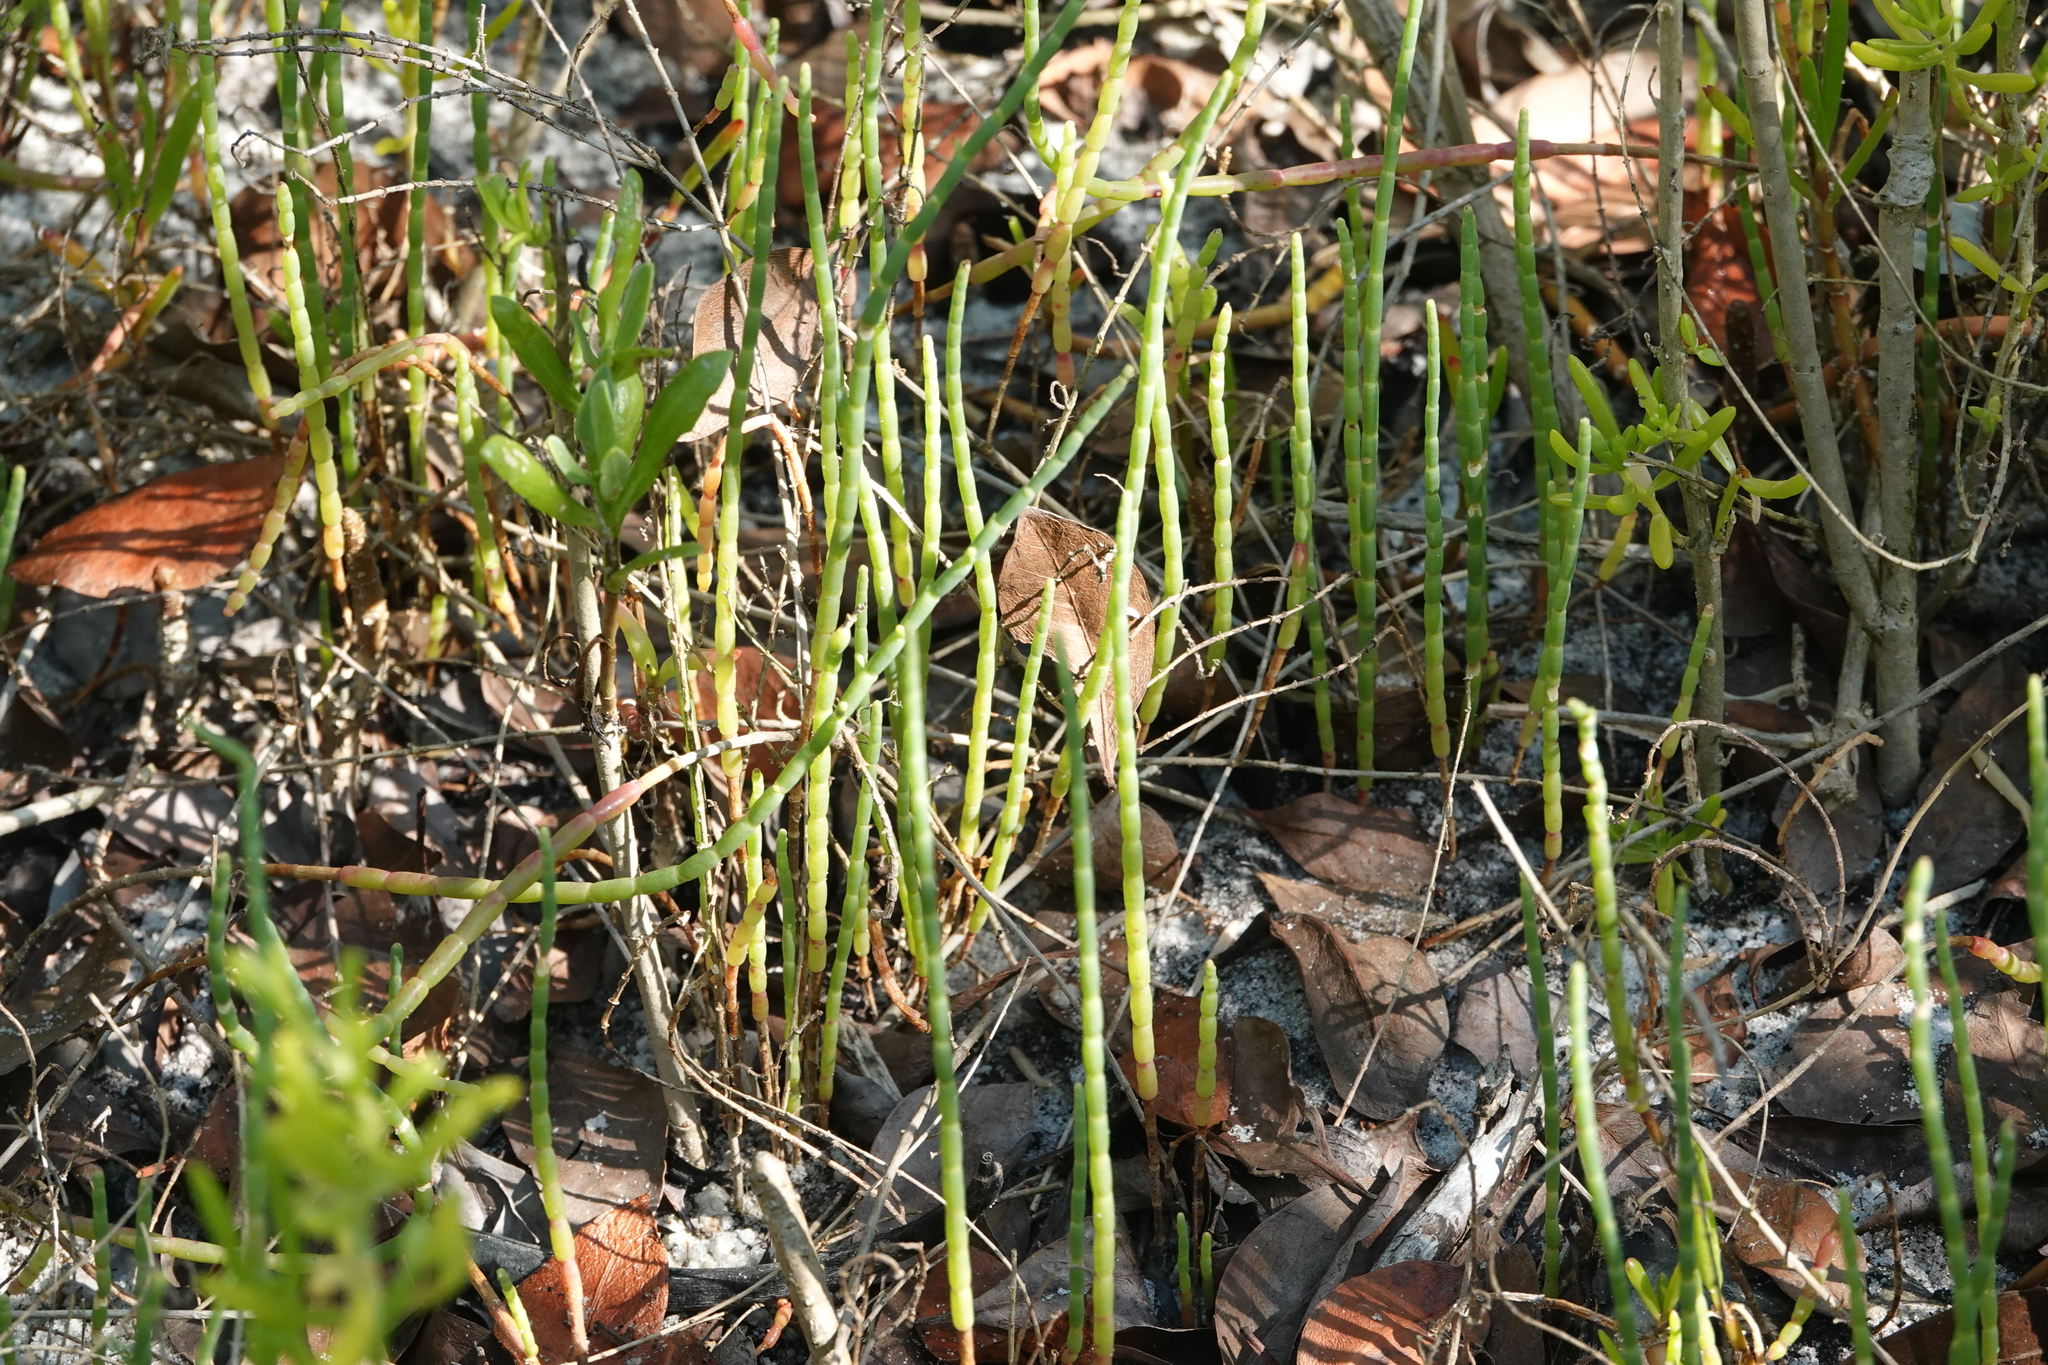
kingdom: Plantae
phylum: Tracheophyta
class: Magnoliopsida
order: Caryophyllales
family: Amaranthaceae
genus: Salicornia
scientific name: Salicornia ambigua
